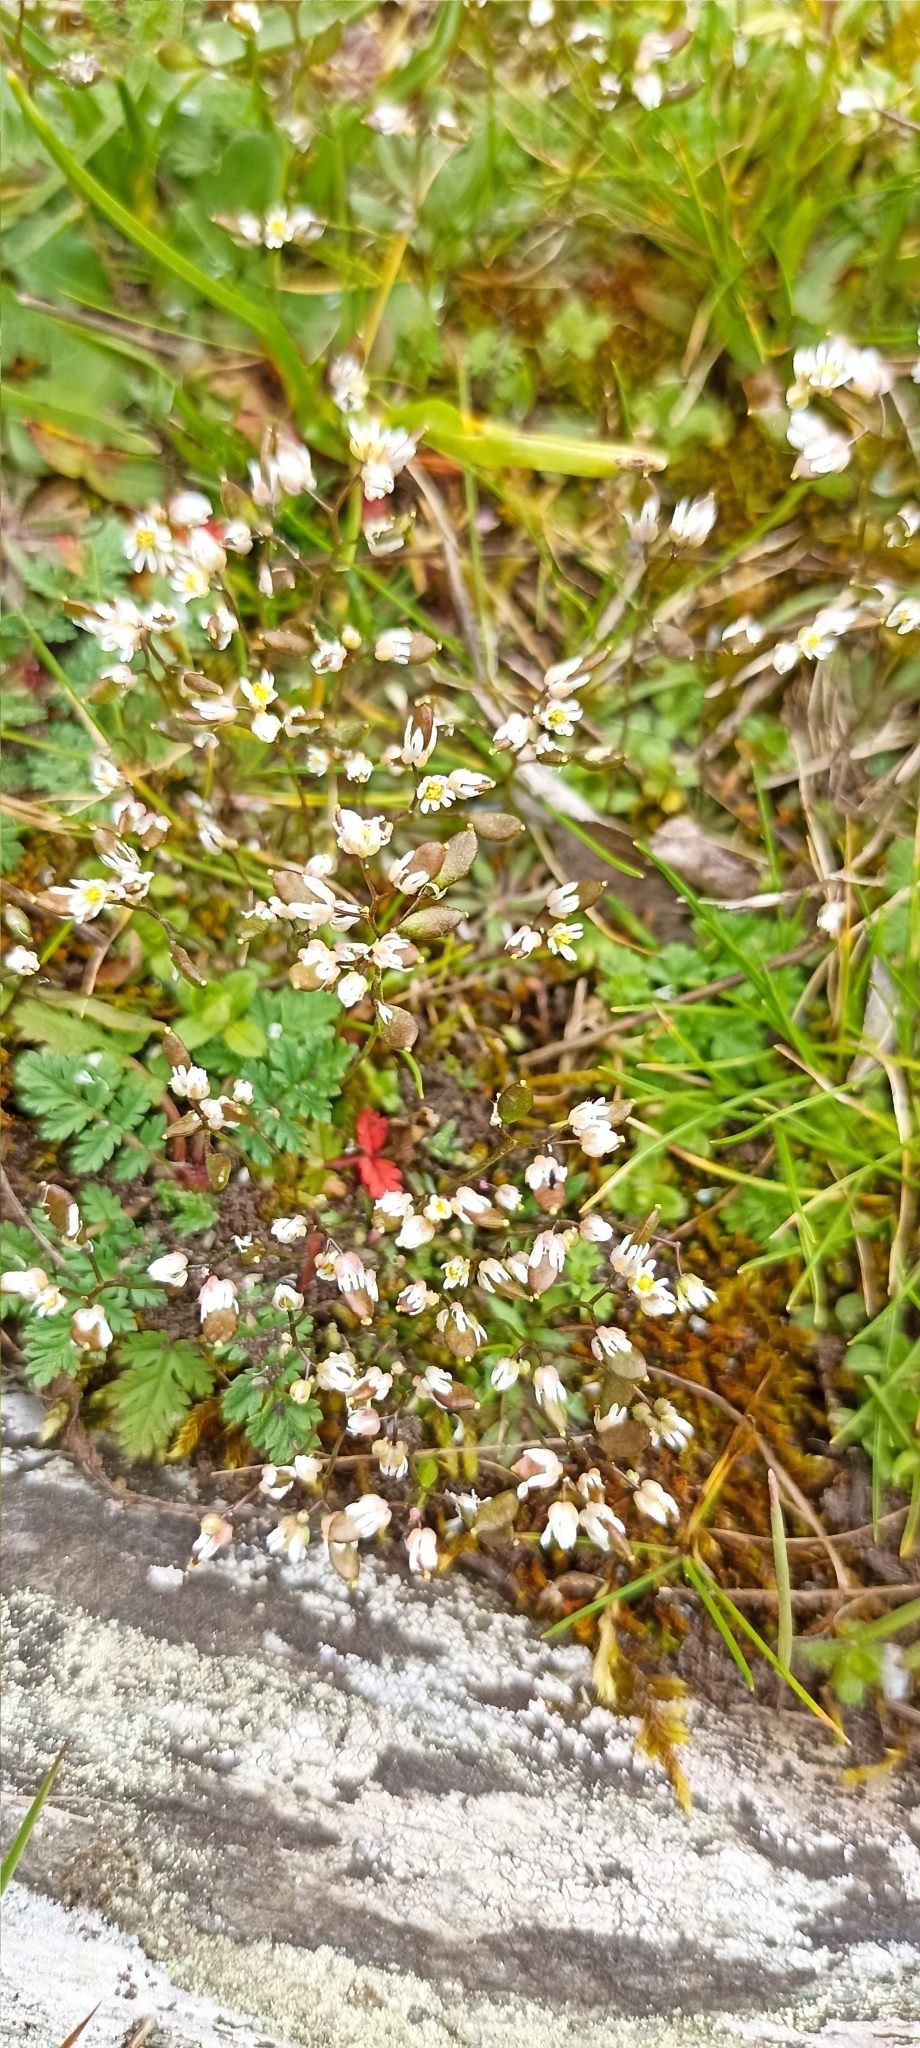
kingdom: Plantae
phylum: Tracheophyta
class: Magnoliopsida
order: Brassicales
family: Brassicaceae
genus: Draba
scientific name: Draba verna
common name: Spring draba
